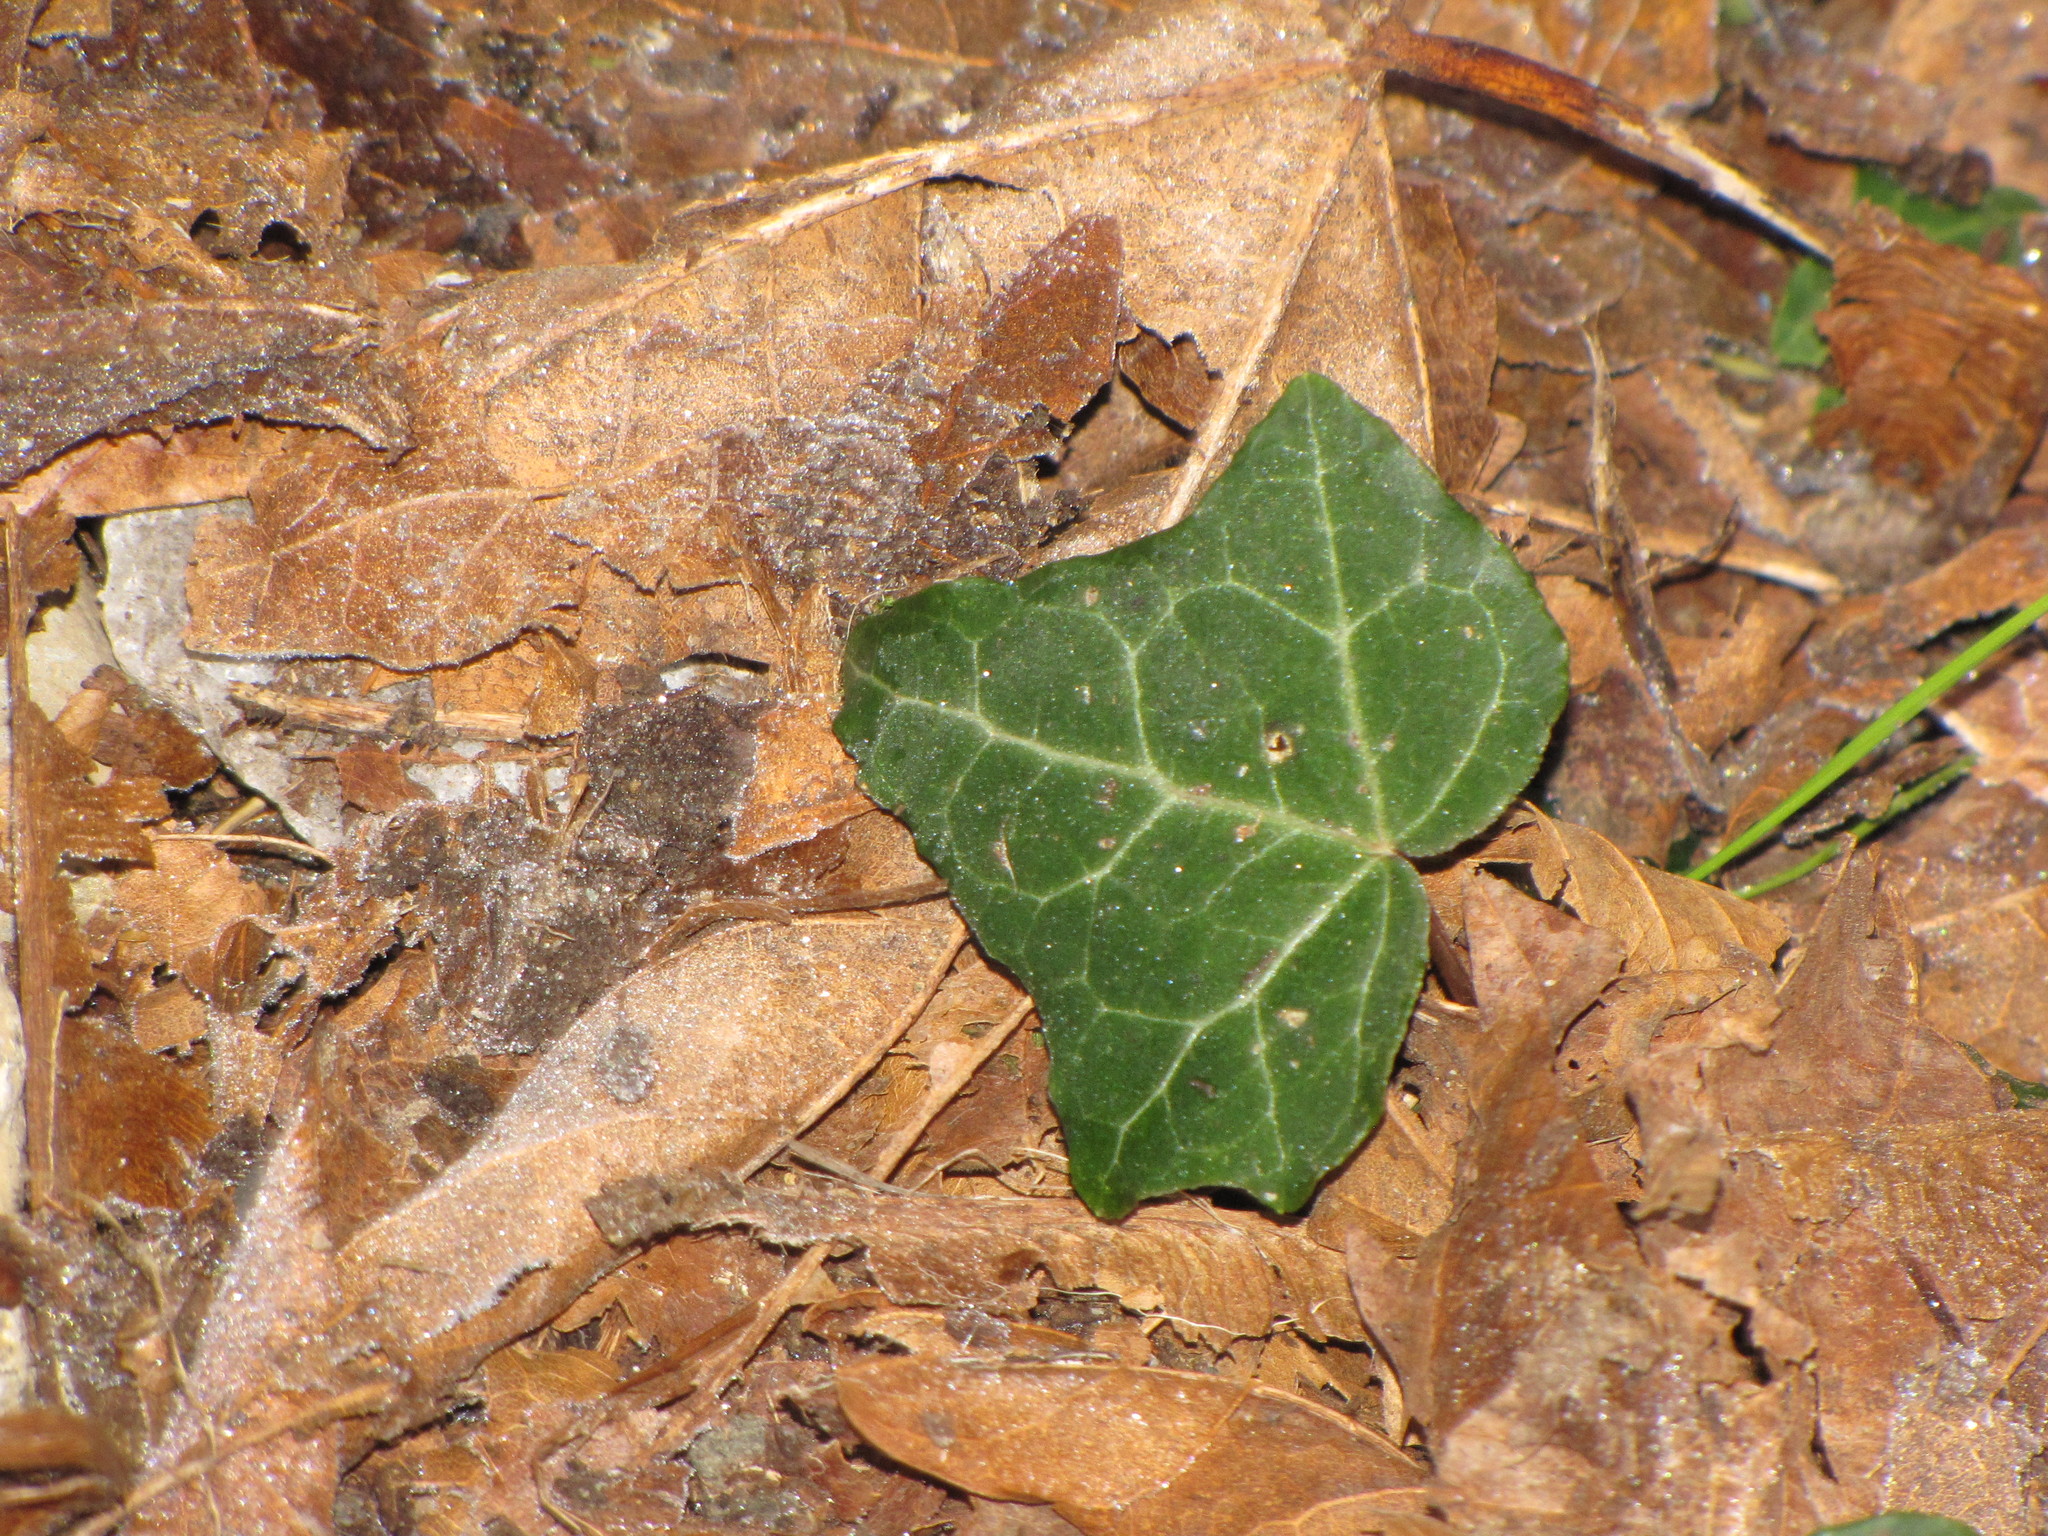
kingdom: Plantae
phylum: Tracheophyta
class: Magnoliopsida
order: Apiales
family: Araliaceae
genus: Hedera
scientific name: Hedera helix
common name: Ivy
